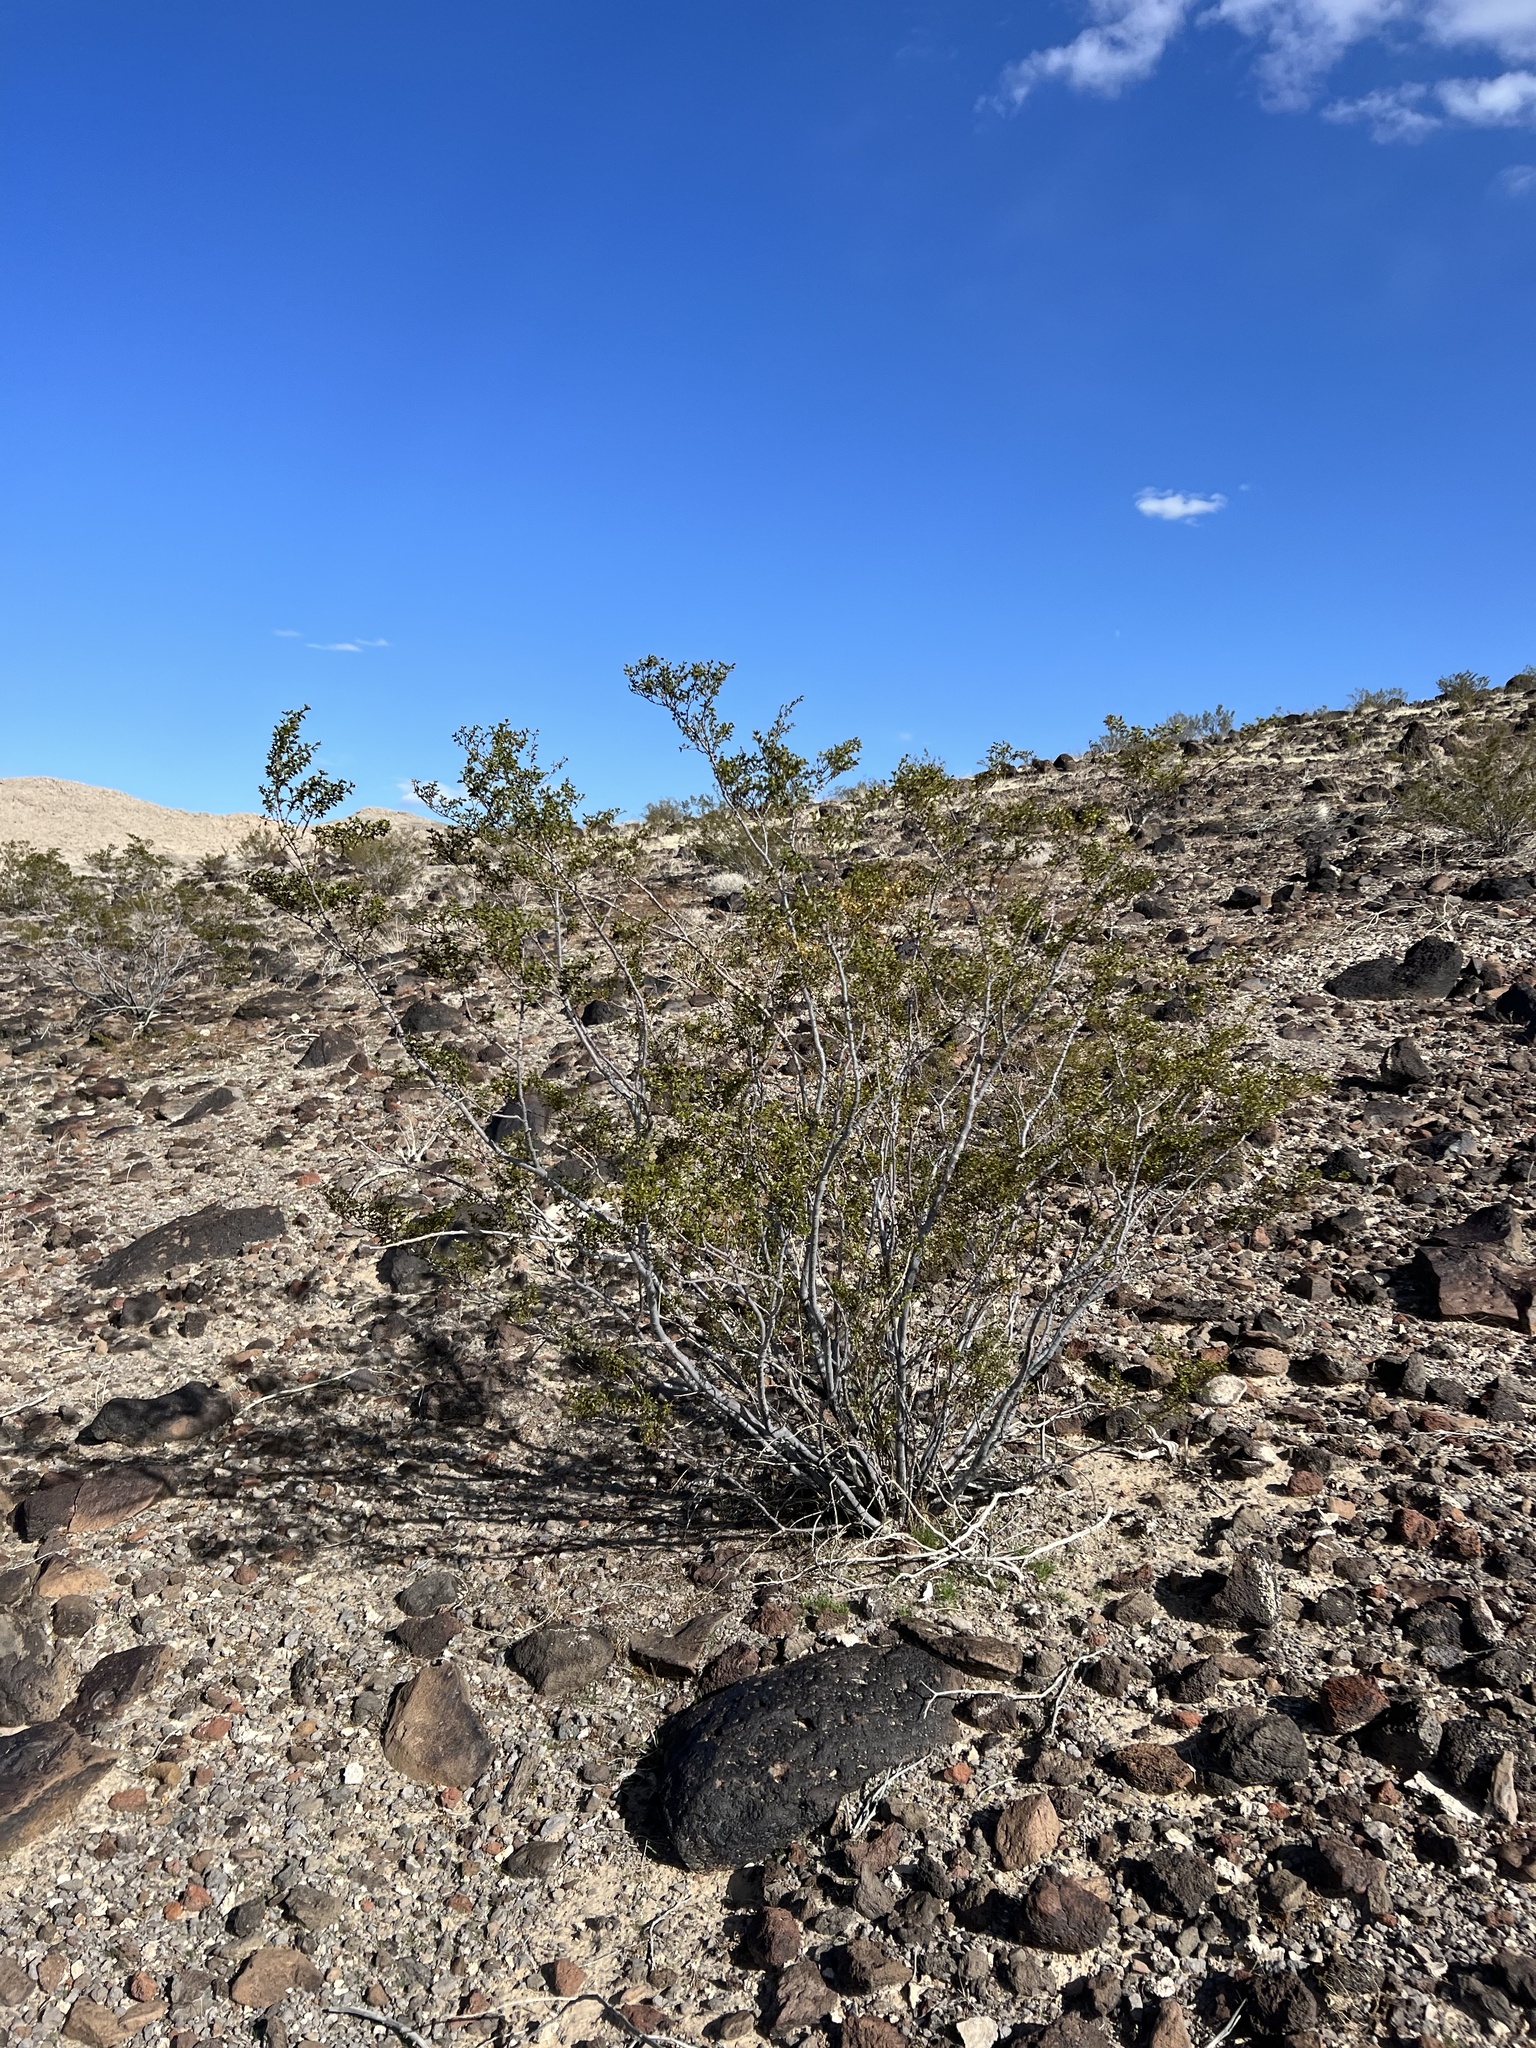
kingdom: Plantae
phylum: Tracheophyta
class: Magnoliopsida
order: Zygophyllales
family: Zygophyllaceae
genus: Larrea
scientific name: Larrea tridentata
